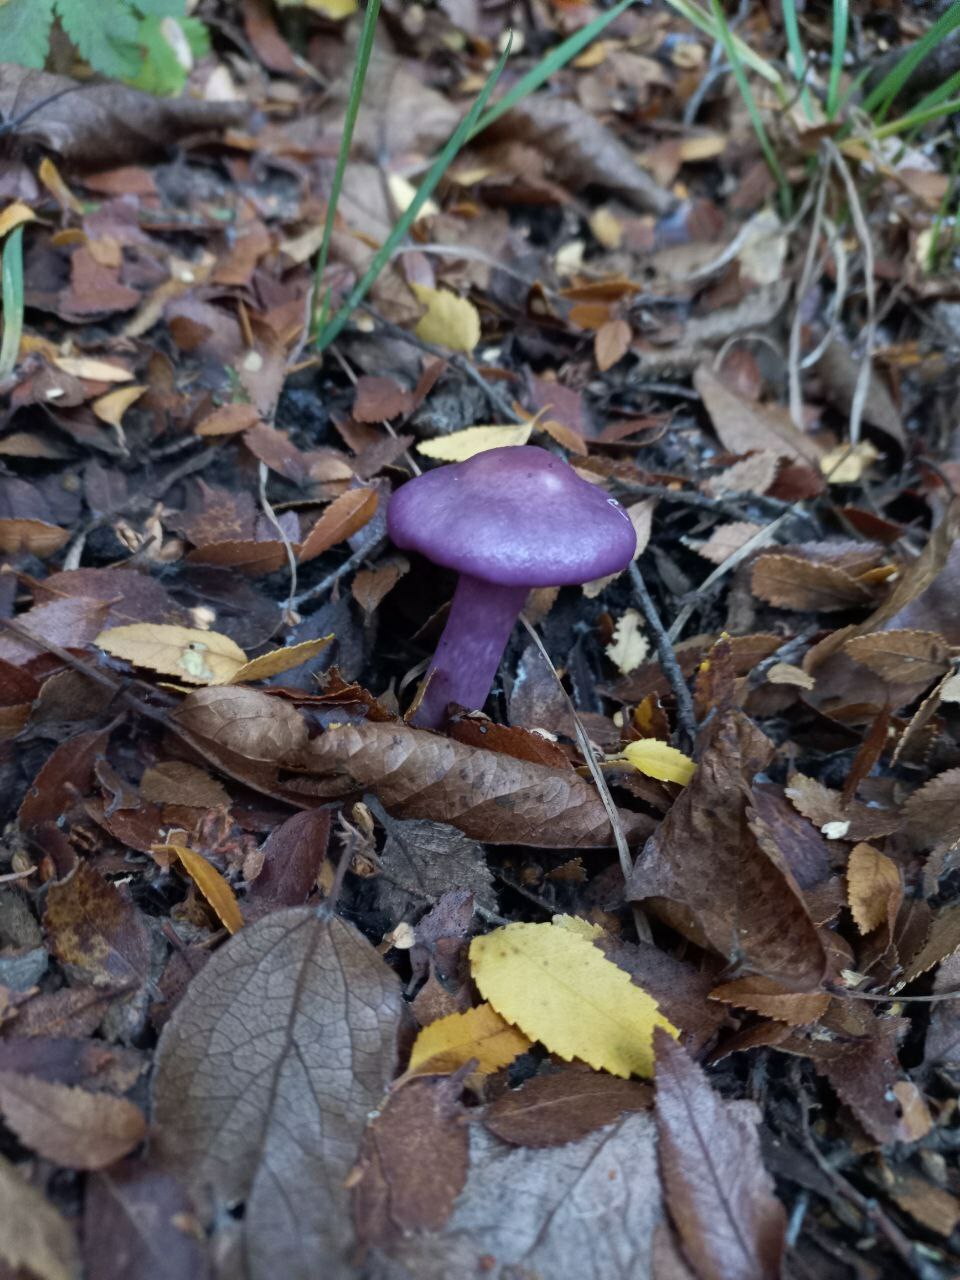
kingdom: Fungi
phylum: Basidiomycota
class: Agaricomycetes
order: Agaricales
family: Cortinariaceae
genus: Cortinarius
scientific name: Cortinarius magellanicus
